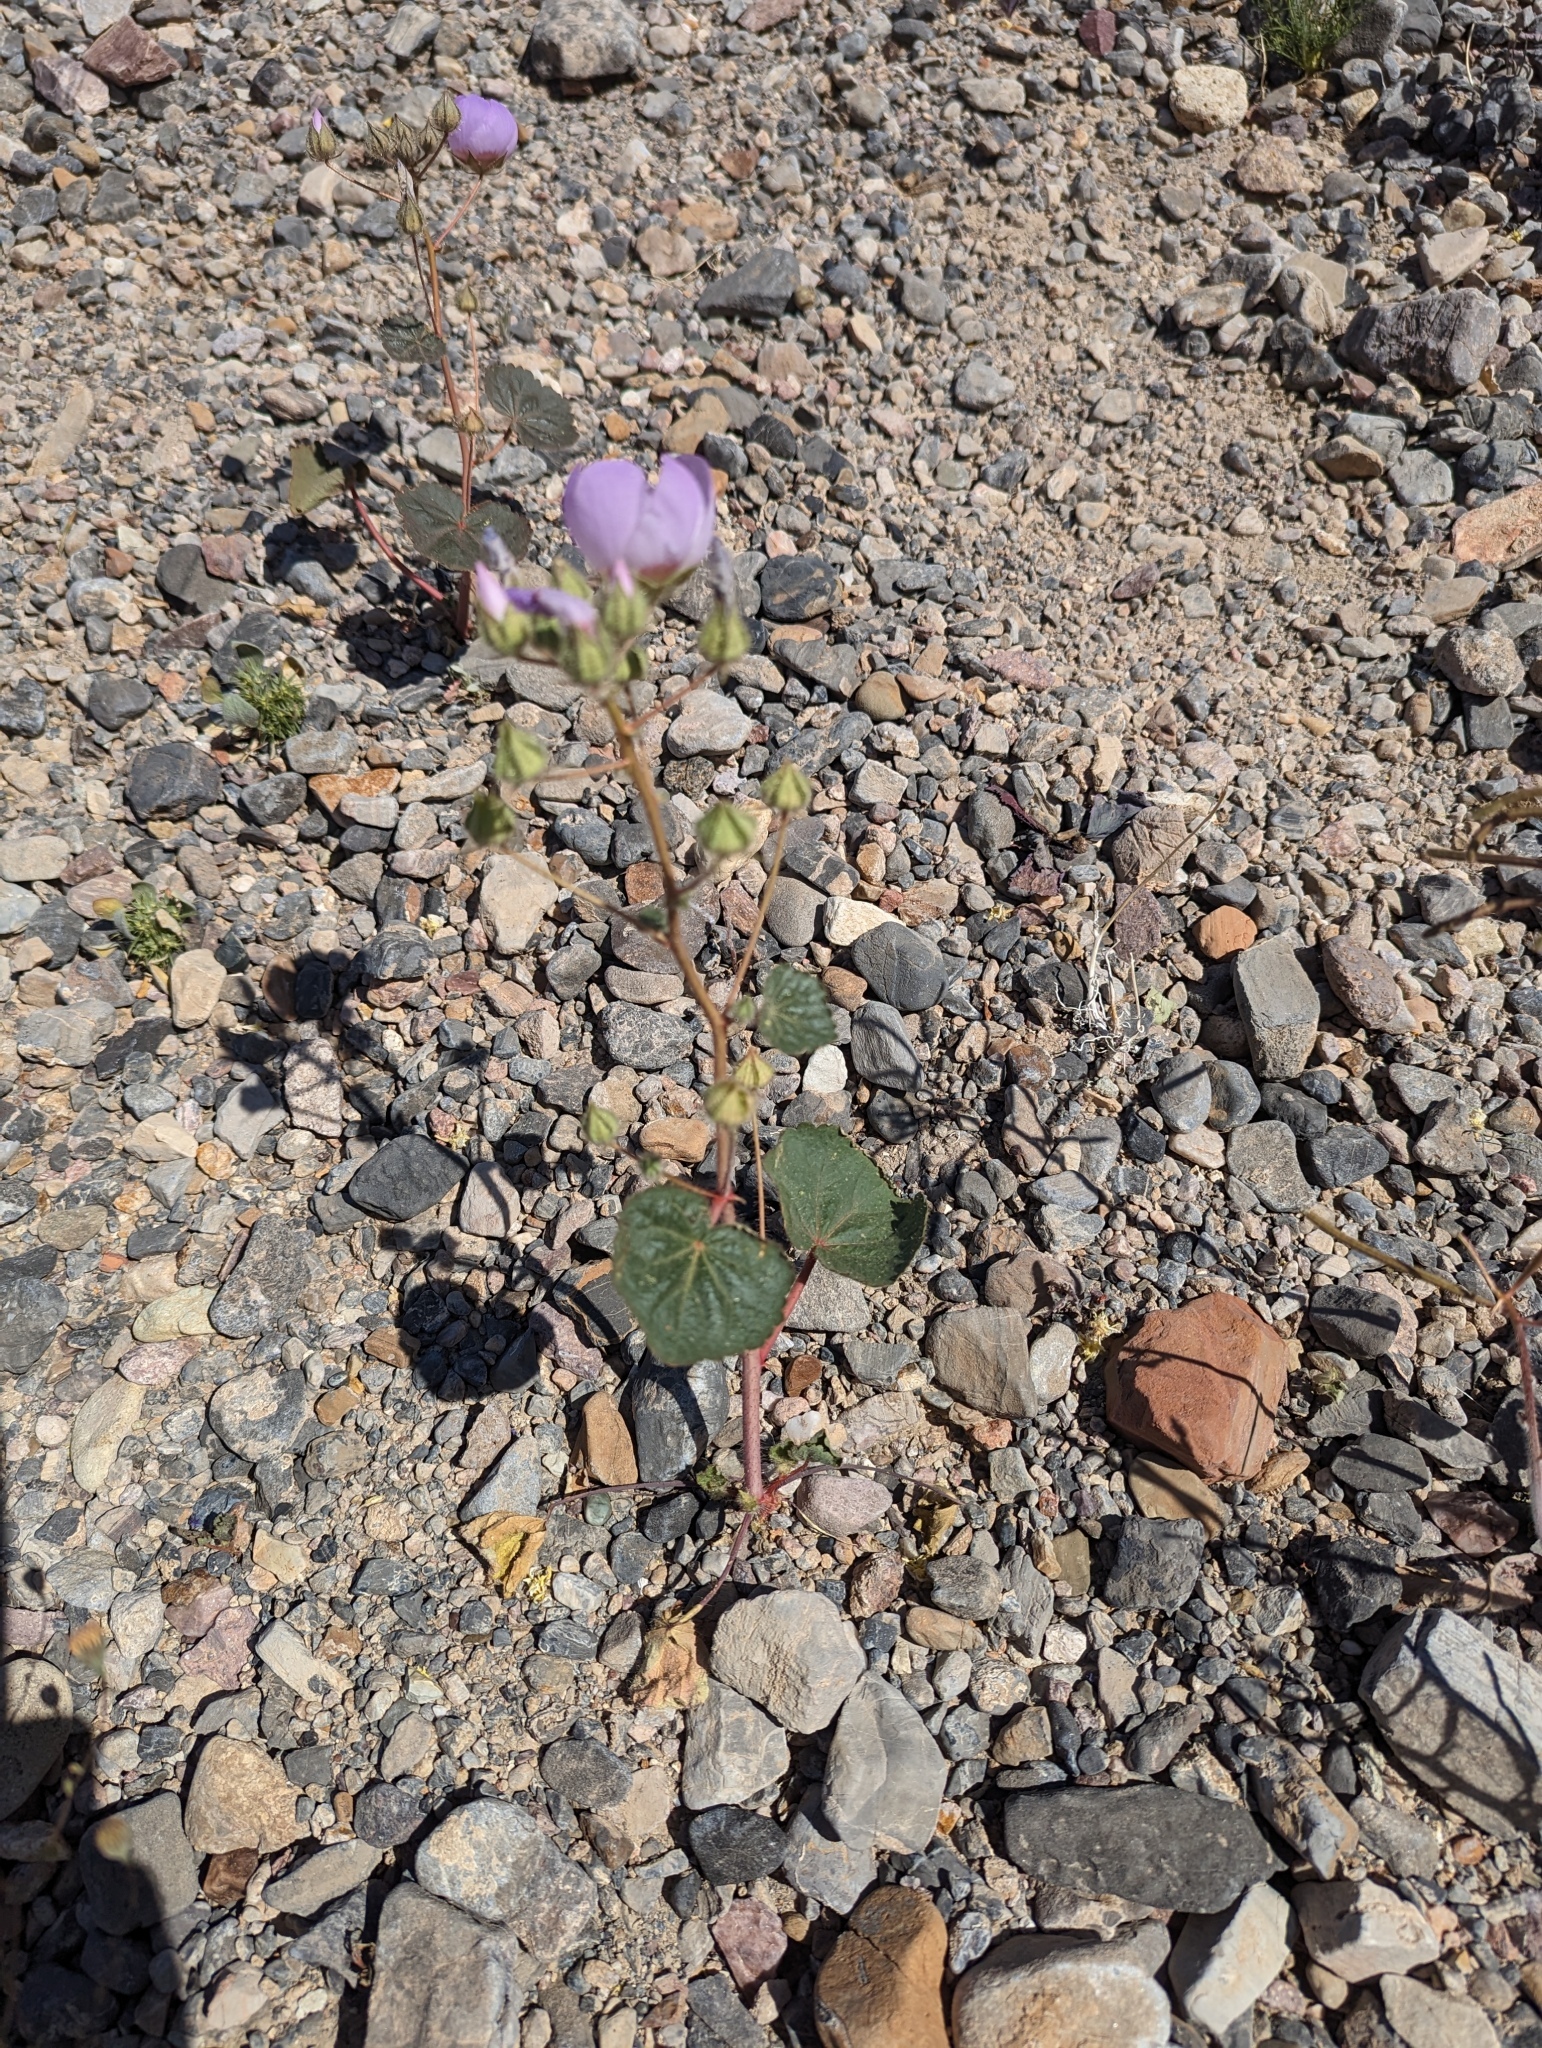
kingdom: Plantae
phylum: Tracheophyta
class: Magnoliopsida
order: Malvales
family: Malvaceae
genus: Eremalche
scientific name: Eremalche rotundifolia
